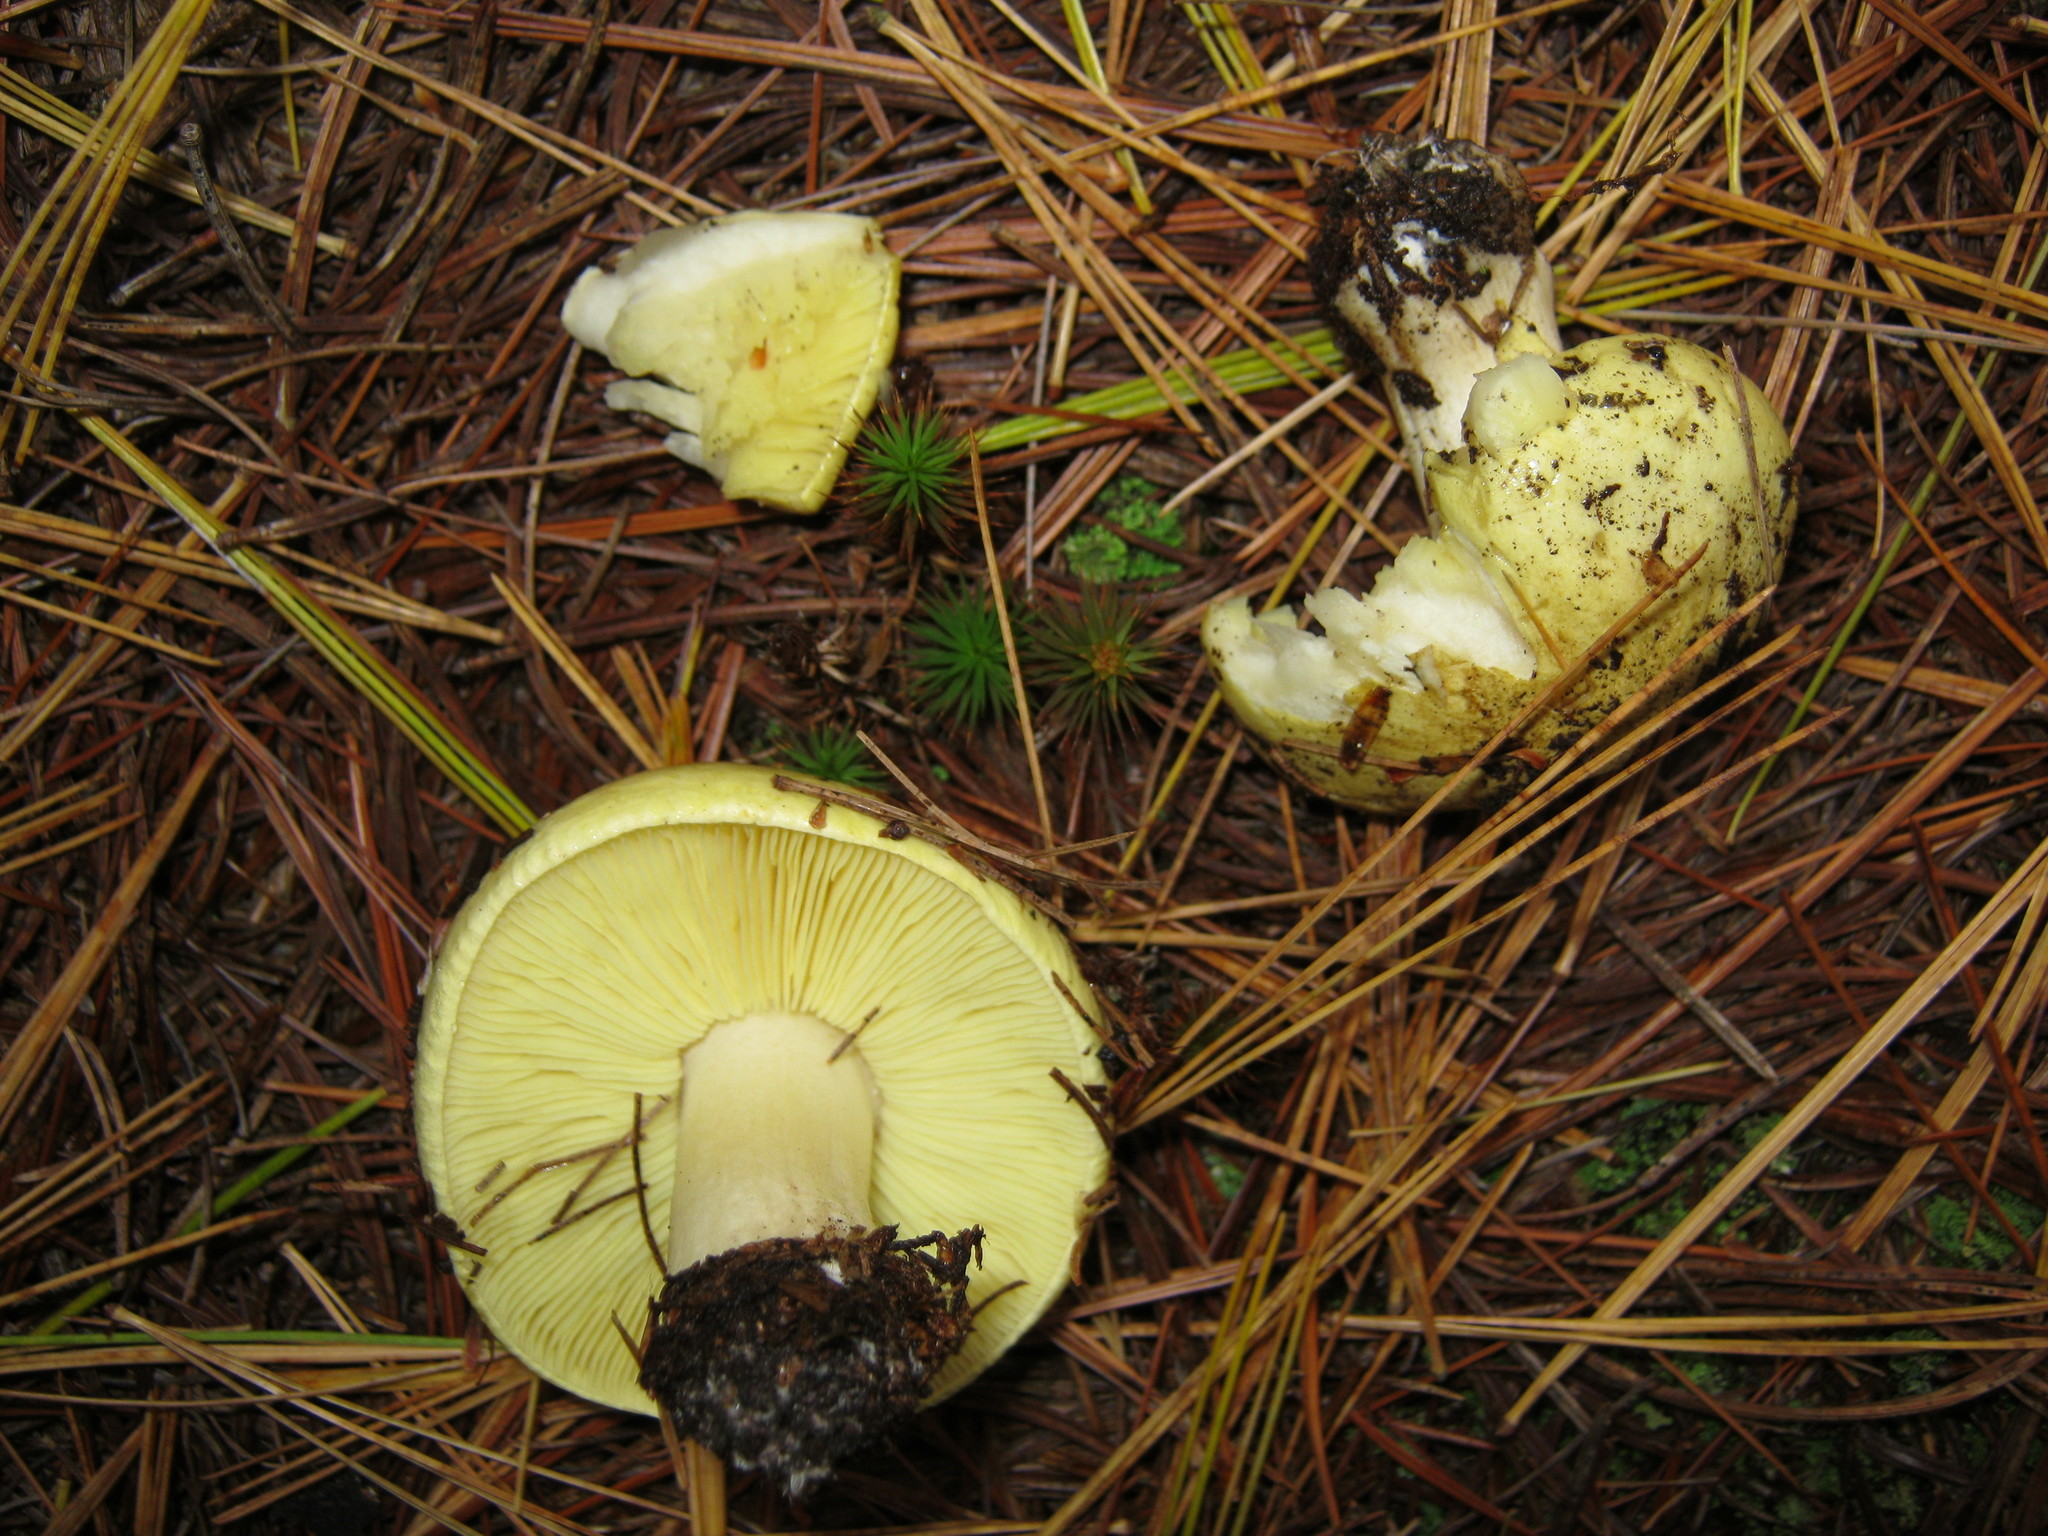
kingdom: Fungi
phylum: Basidiomycota
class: Agaricomycetes
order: Agaricales
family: Tricholomataceae
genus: Tricholoma
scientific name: Tricholoma equestre
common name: Yellow knight
